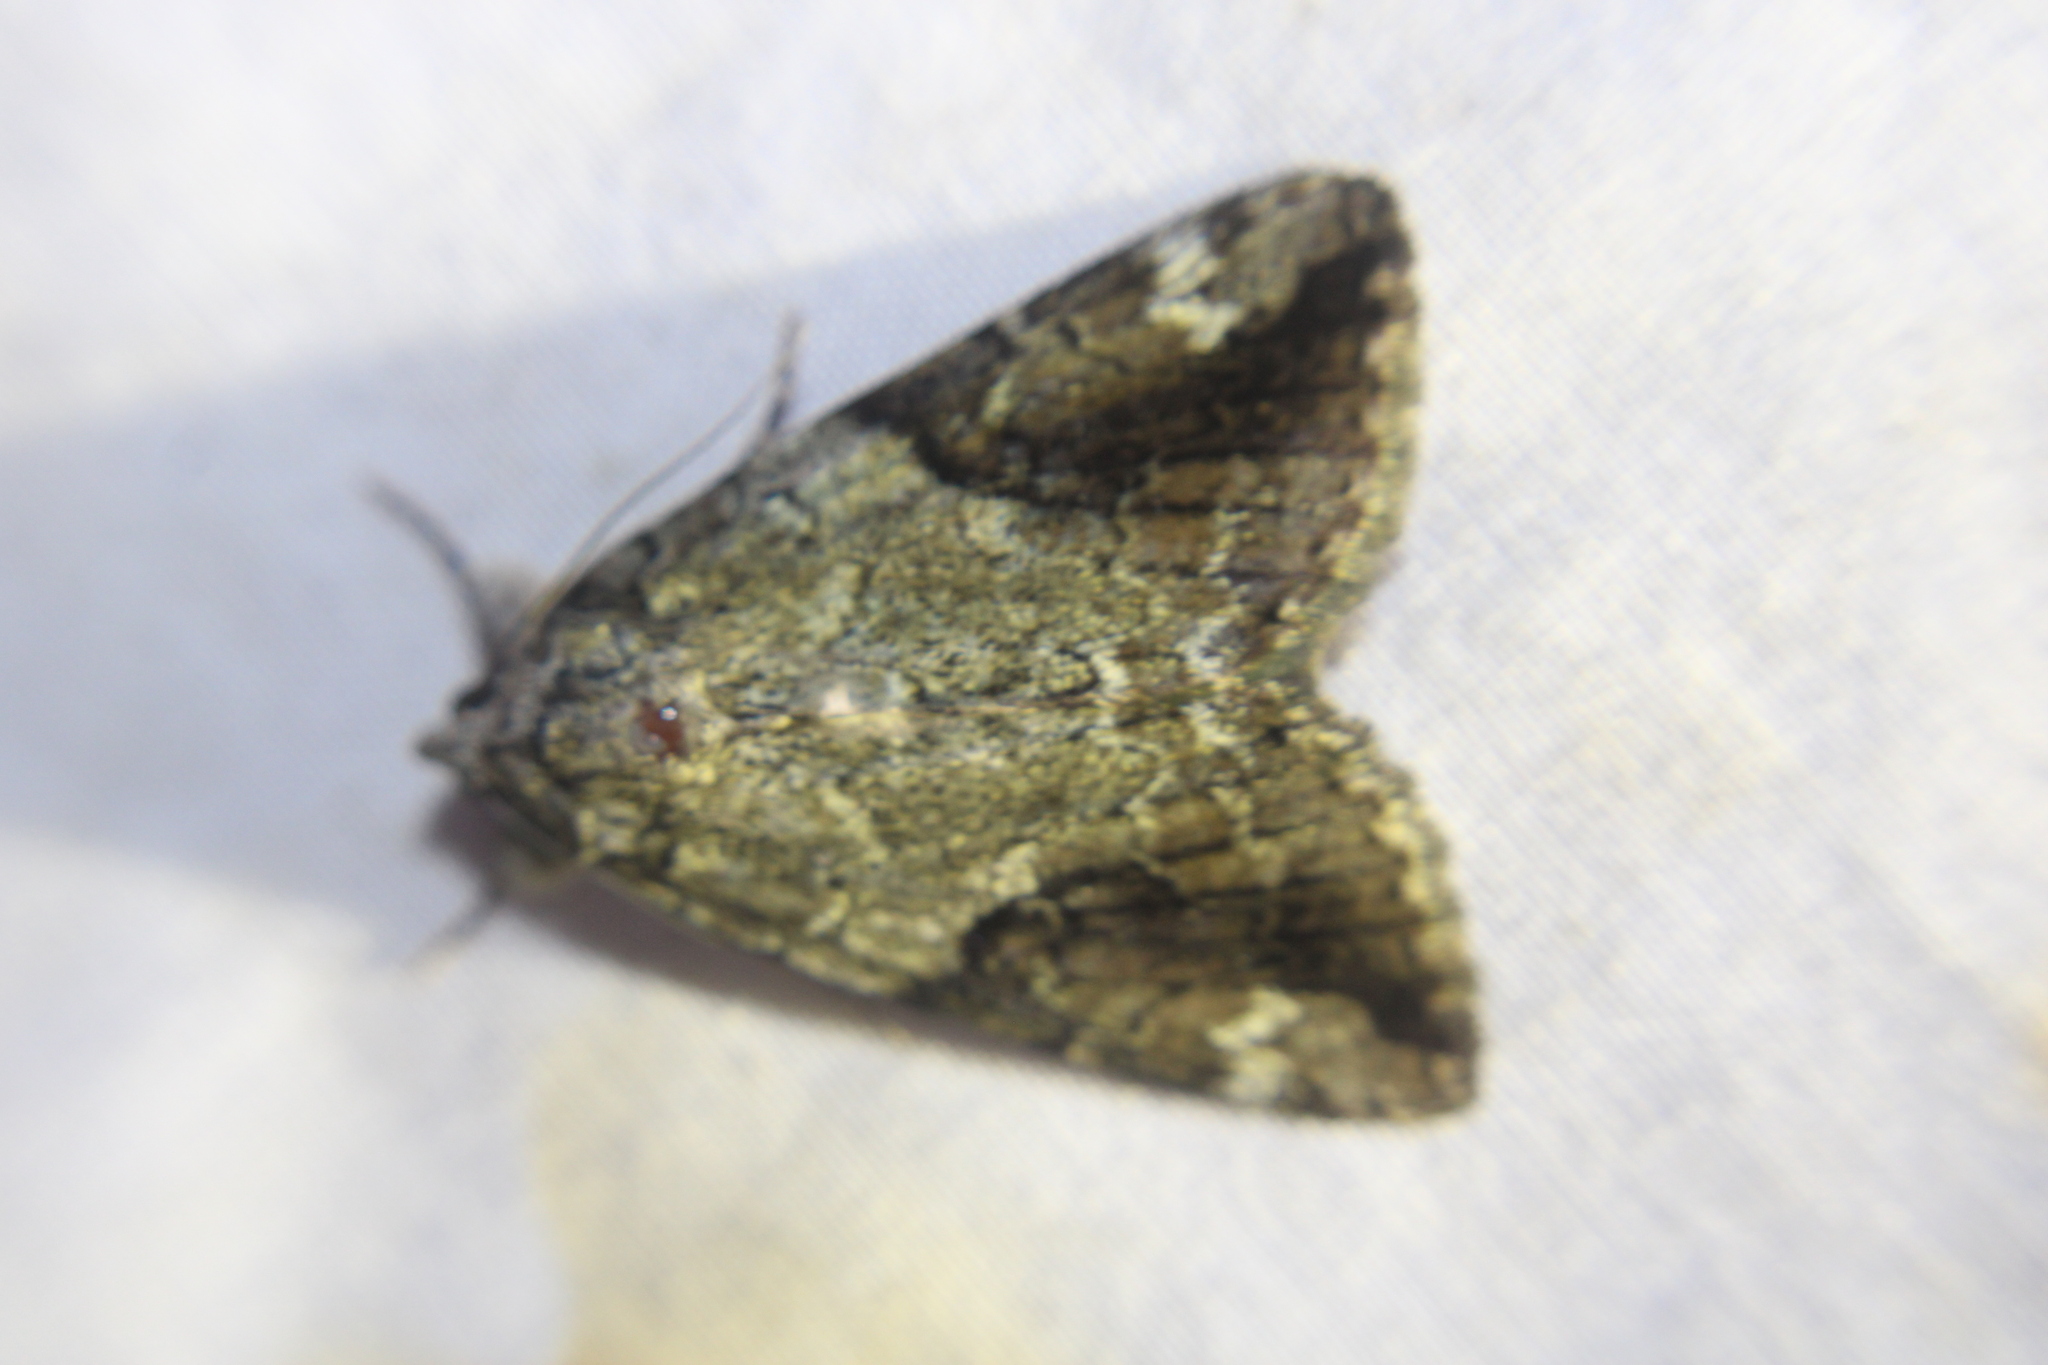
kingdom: Animalia
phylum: Arthropoda
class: Insecta
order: Lepidoptera
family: Erebidae
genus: Catocala
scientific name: Catocala micronympha
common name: Little nymph underwing
